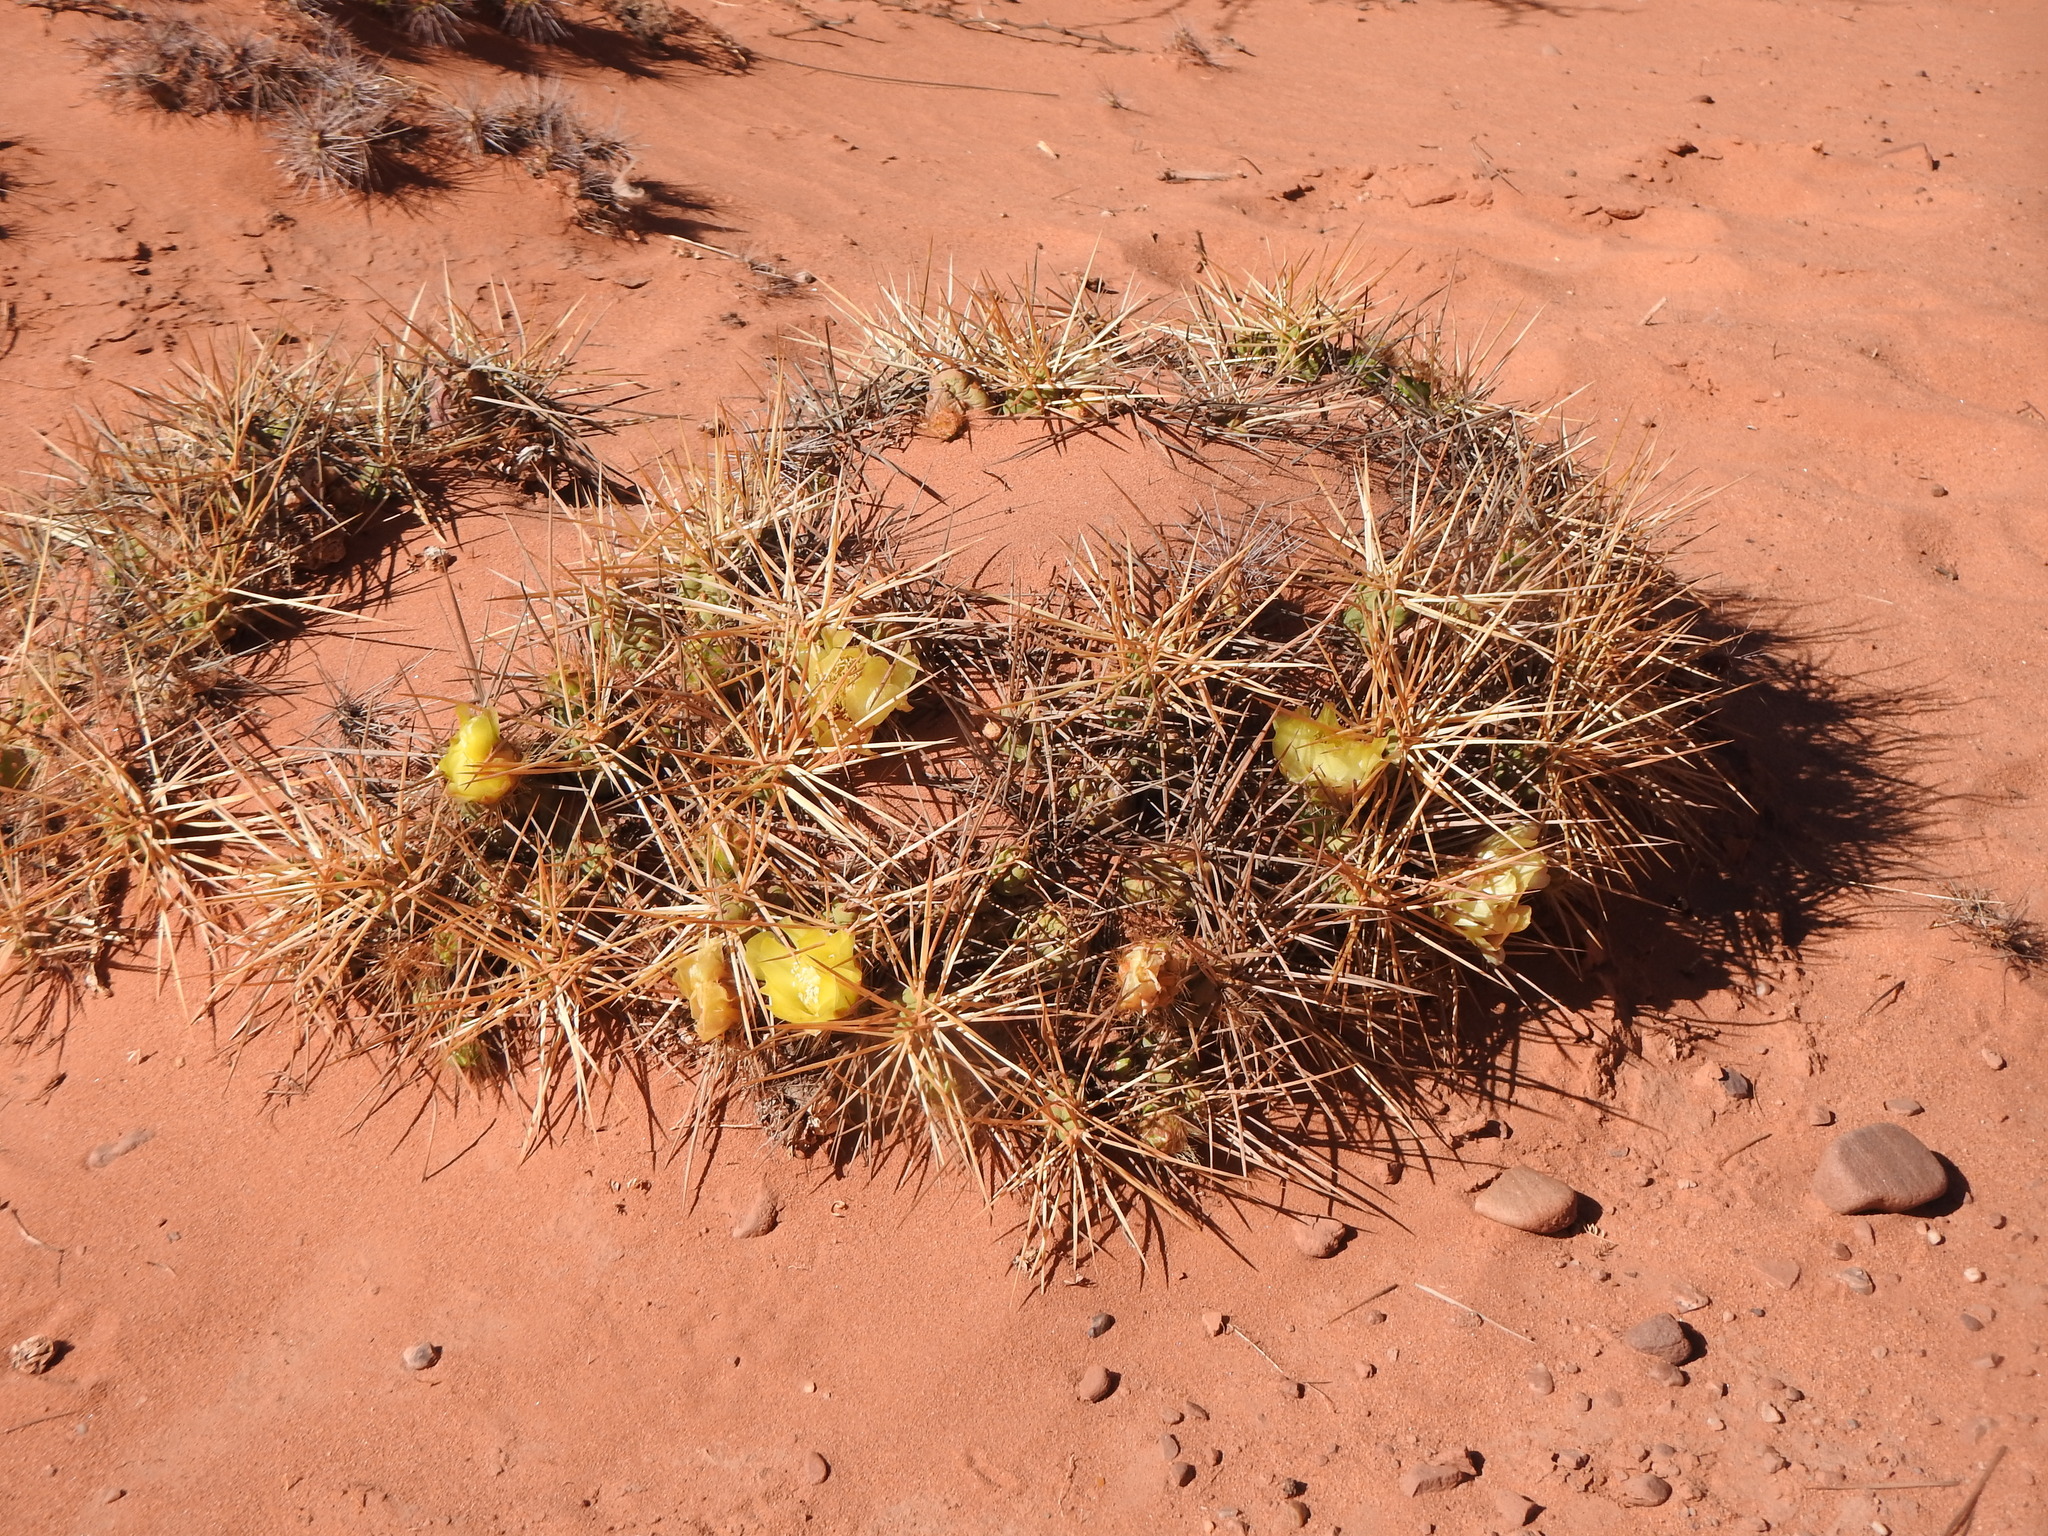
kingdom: Plantae
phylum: Tracheophyta
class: Magnoliopsida
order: Caryophyllales
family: Cactaceae
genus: Cumulopuntia
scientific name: Cumulopuntia boliviana
